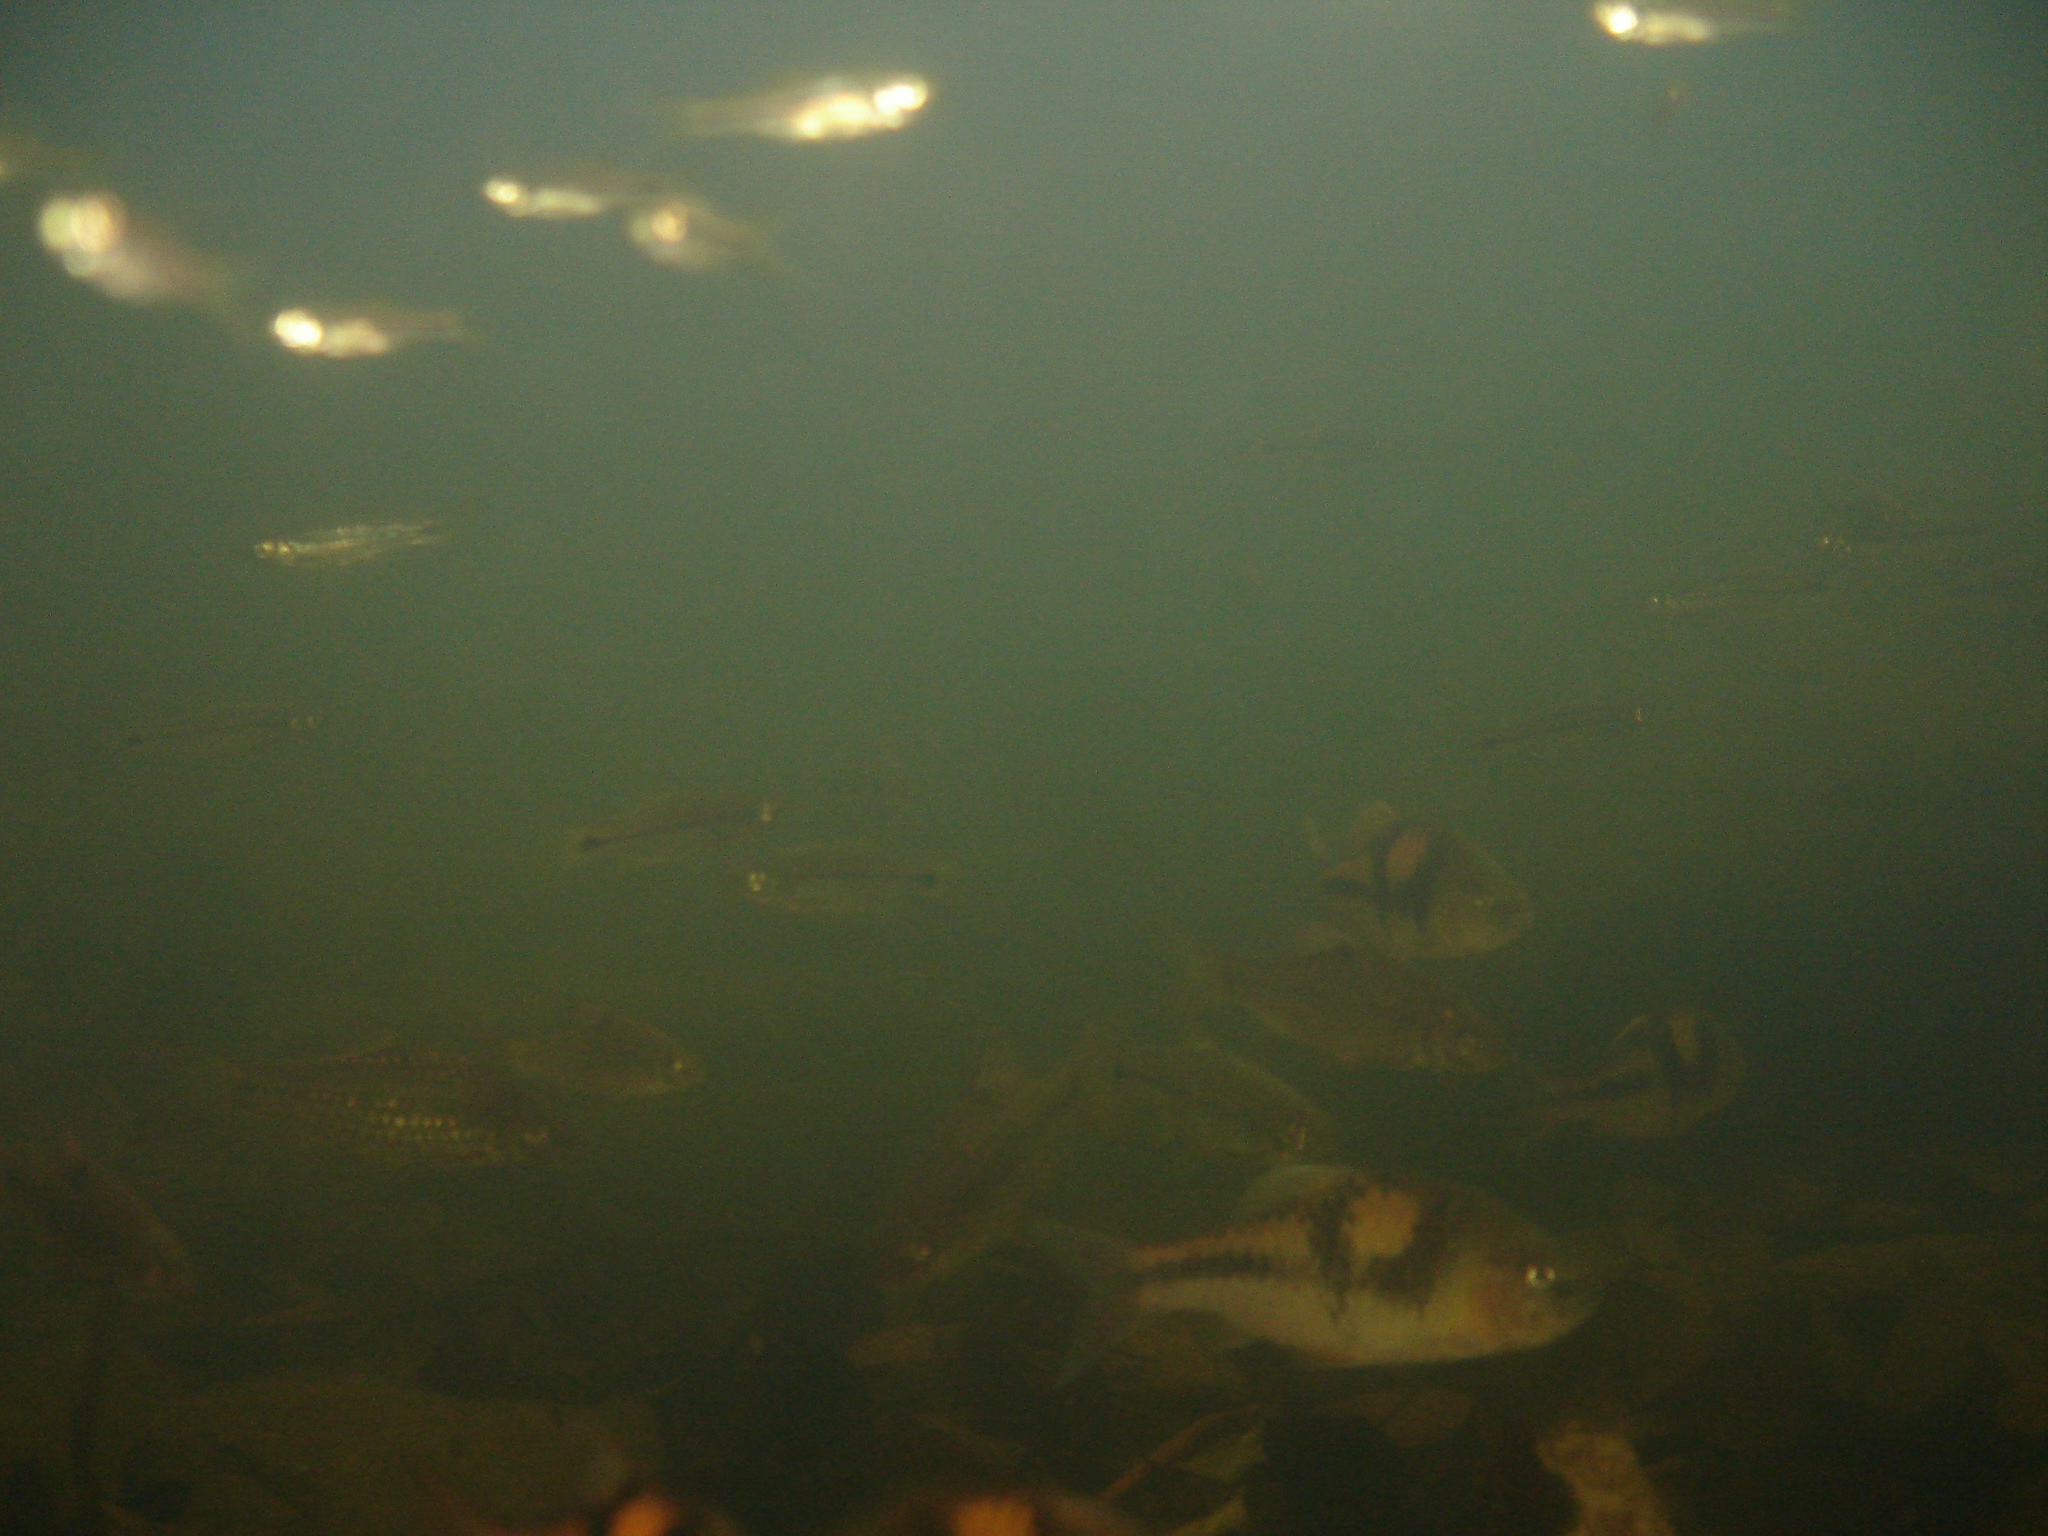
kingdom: Animalia
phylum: Chordata
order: Cypriniformes
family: Cyprinidae
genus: Barbodes
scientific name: Barbodes lateristriga
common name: Spanner barb
